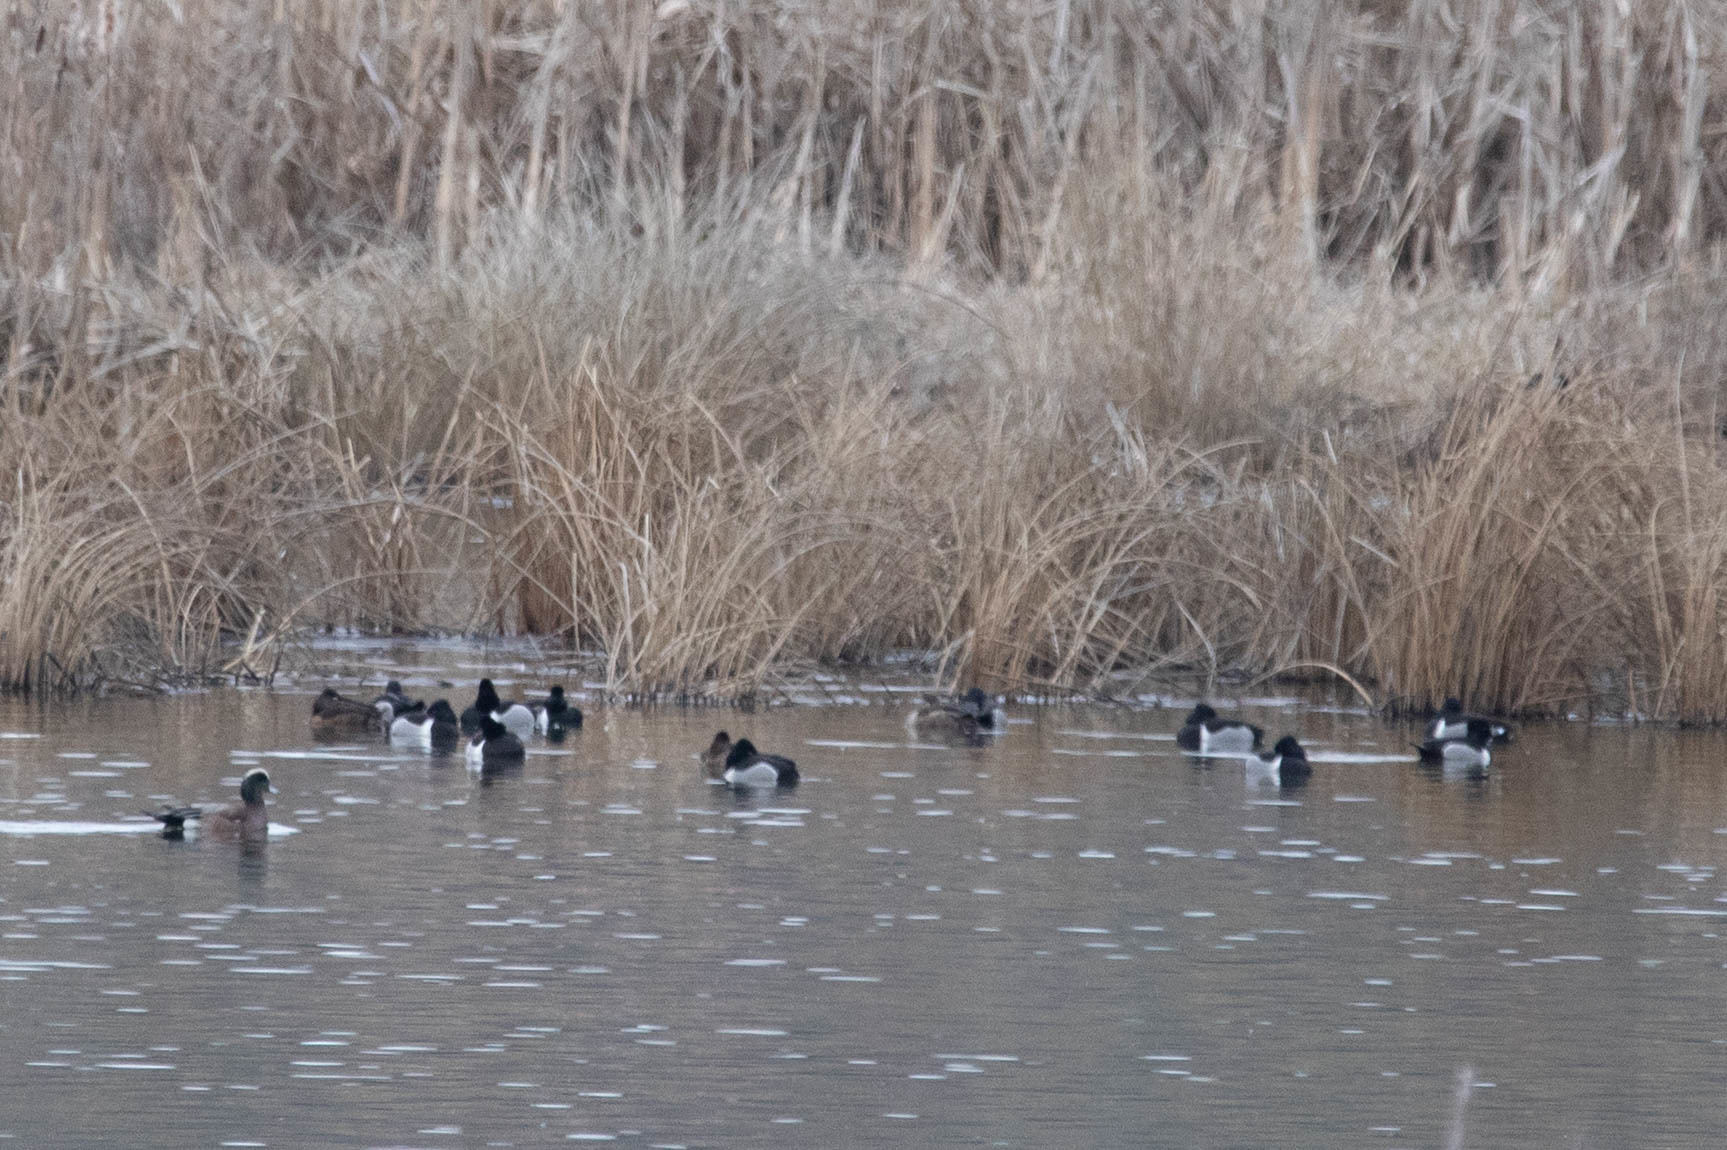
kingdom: Animalia
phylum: Chordata
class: Aves
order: Anseriformes
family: Anatidae
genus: Aythya
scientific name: Aythya collaris
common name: Ring-necked duck
